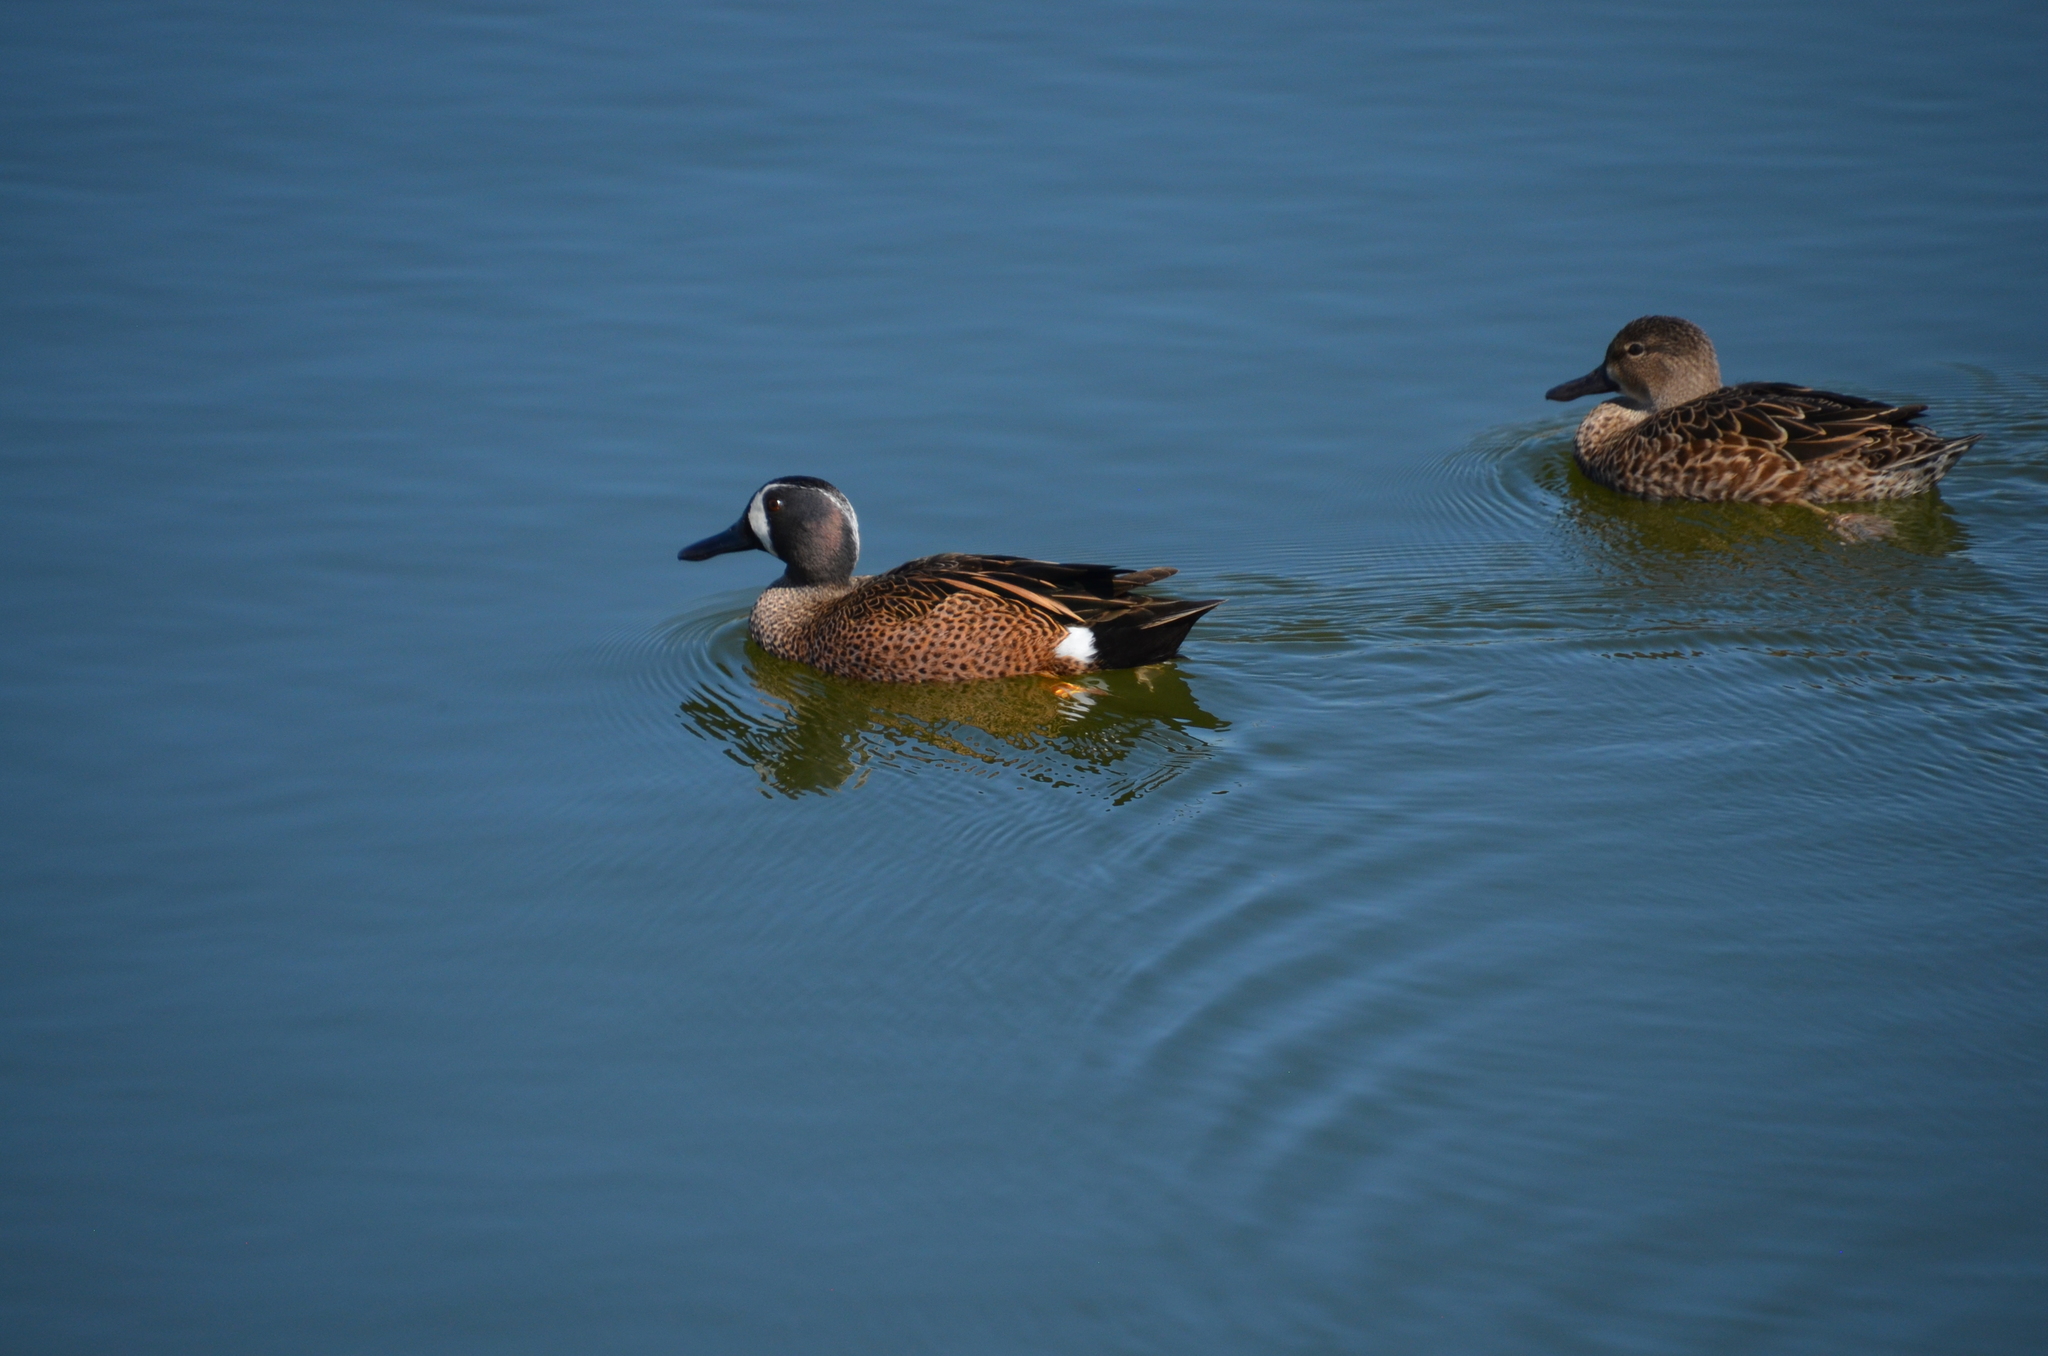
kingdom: Animalia
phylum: Chordata
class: Aves
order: Anseriformes
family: Anatidae
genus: Spatula
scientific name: Spatula discors
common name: Blue-winged teal
